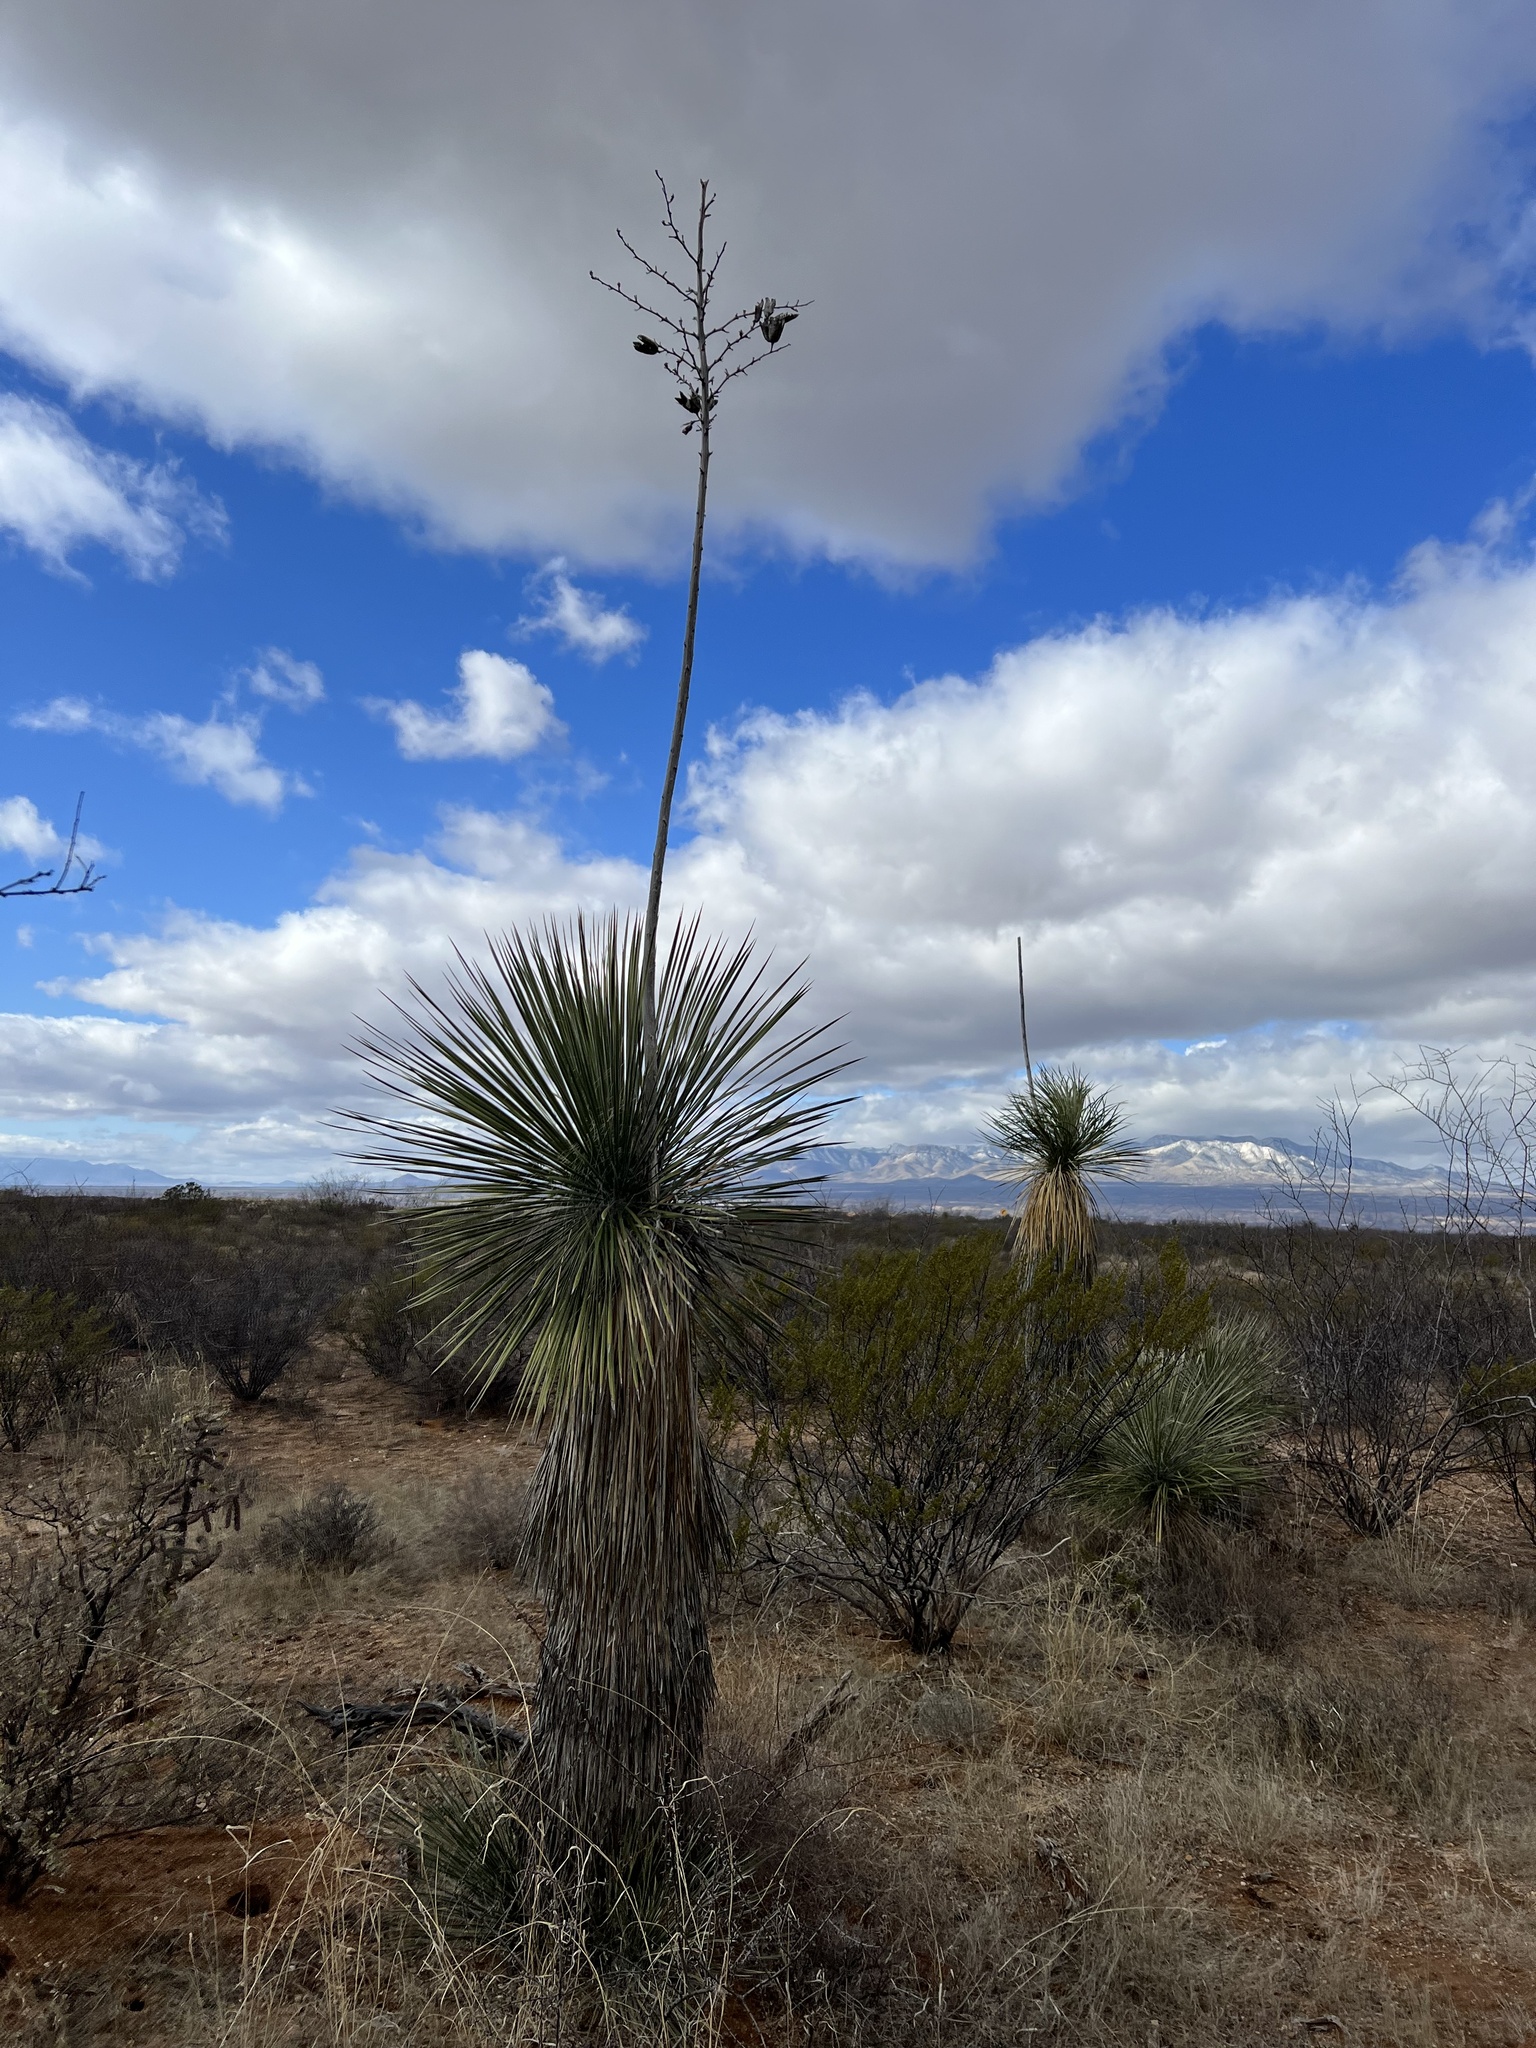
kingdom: Plantae
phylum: Tracheophyta
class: Liliopsida
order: Asparagales
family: Asparagaceae
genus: Yucca
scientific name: Yucca elata
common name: Palmella
